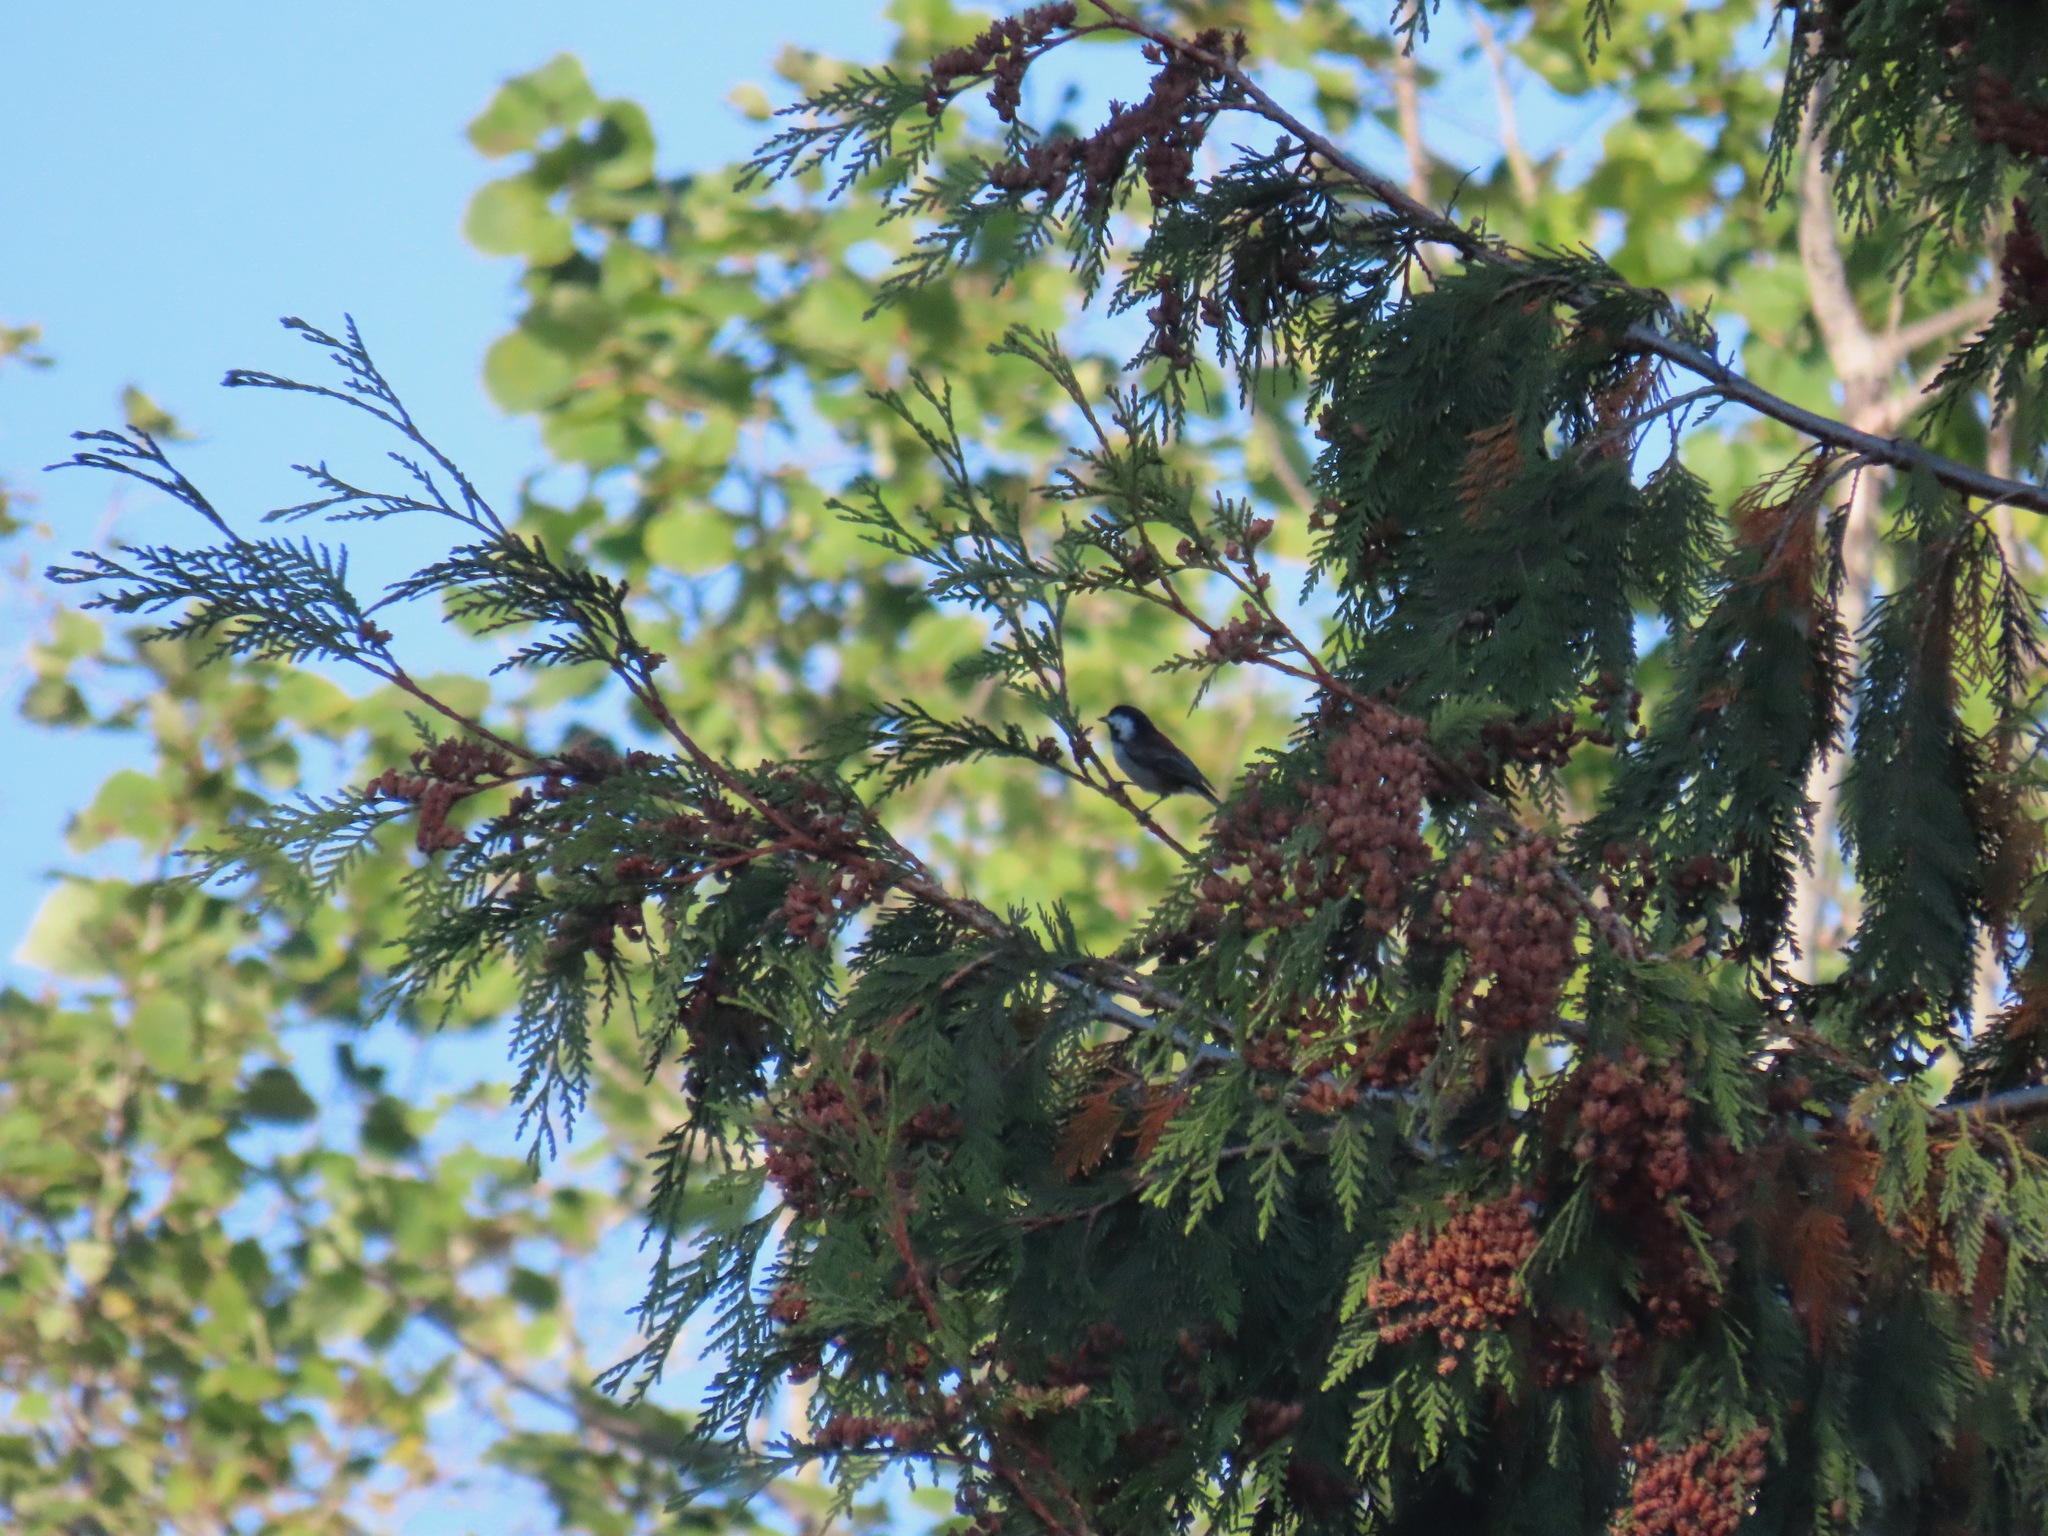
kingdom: Animalia
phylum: Chordata
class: Aves
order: Passeriformes
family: Paridae
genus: Poecile
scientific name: Poecile rufescens
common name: Chestnut-backed chickadee
